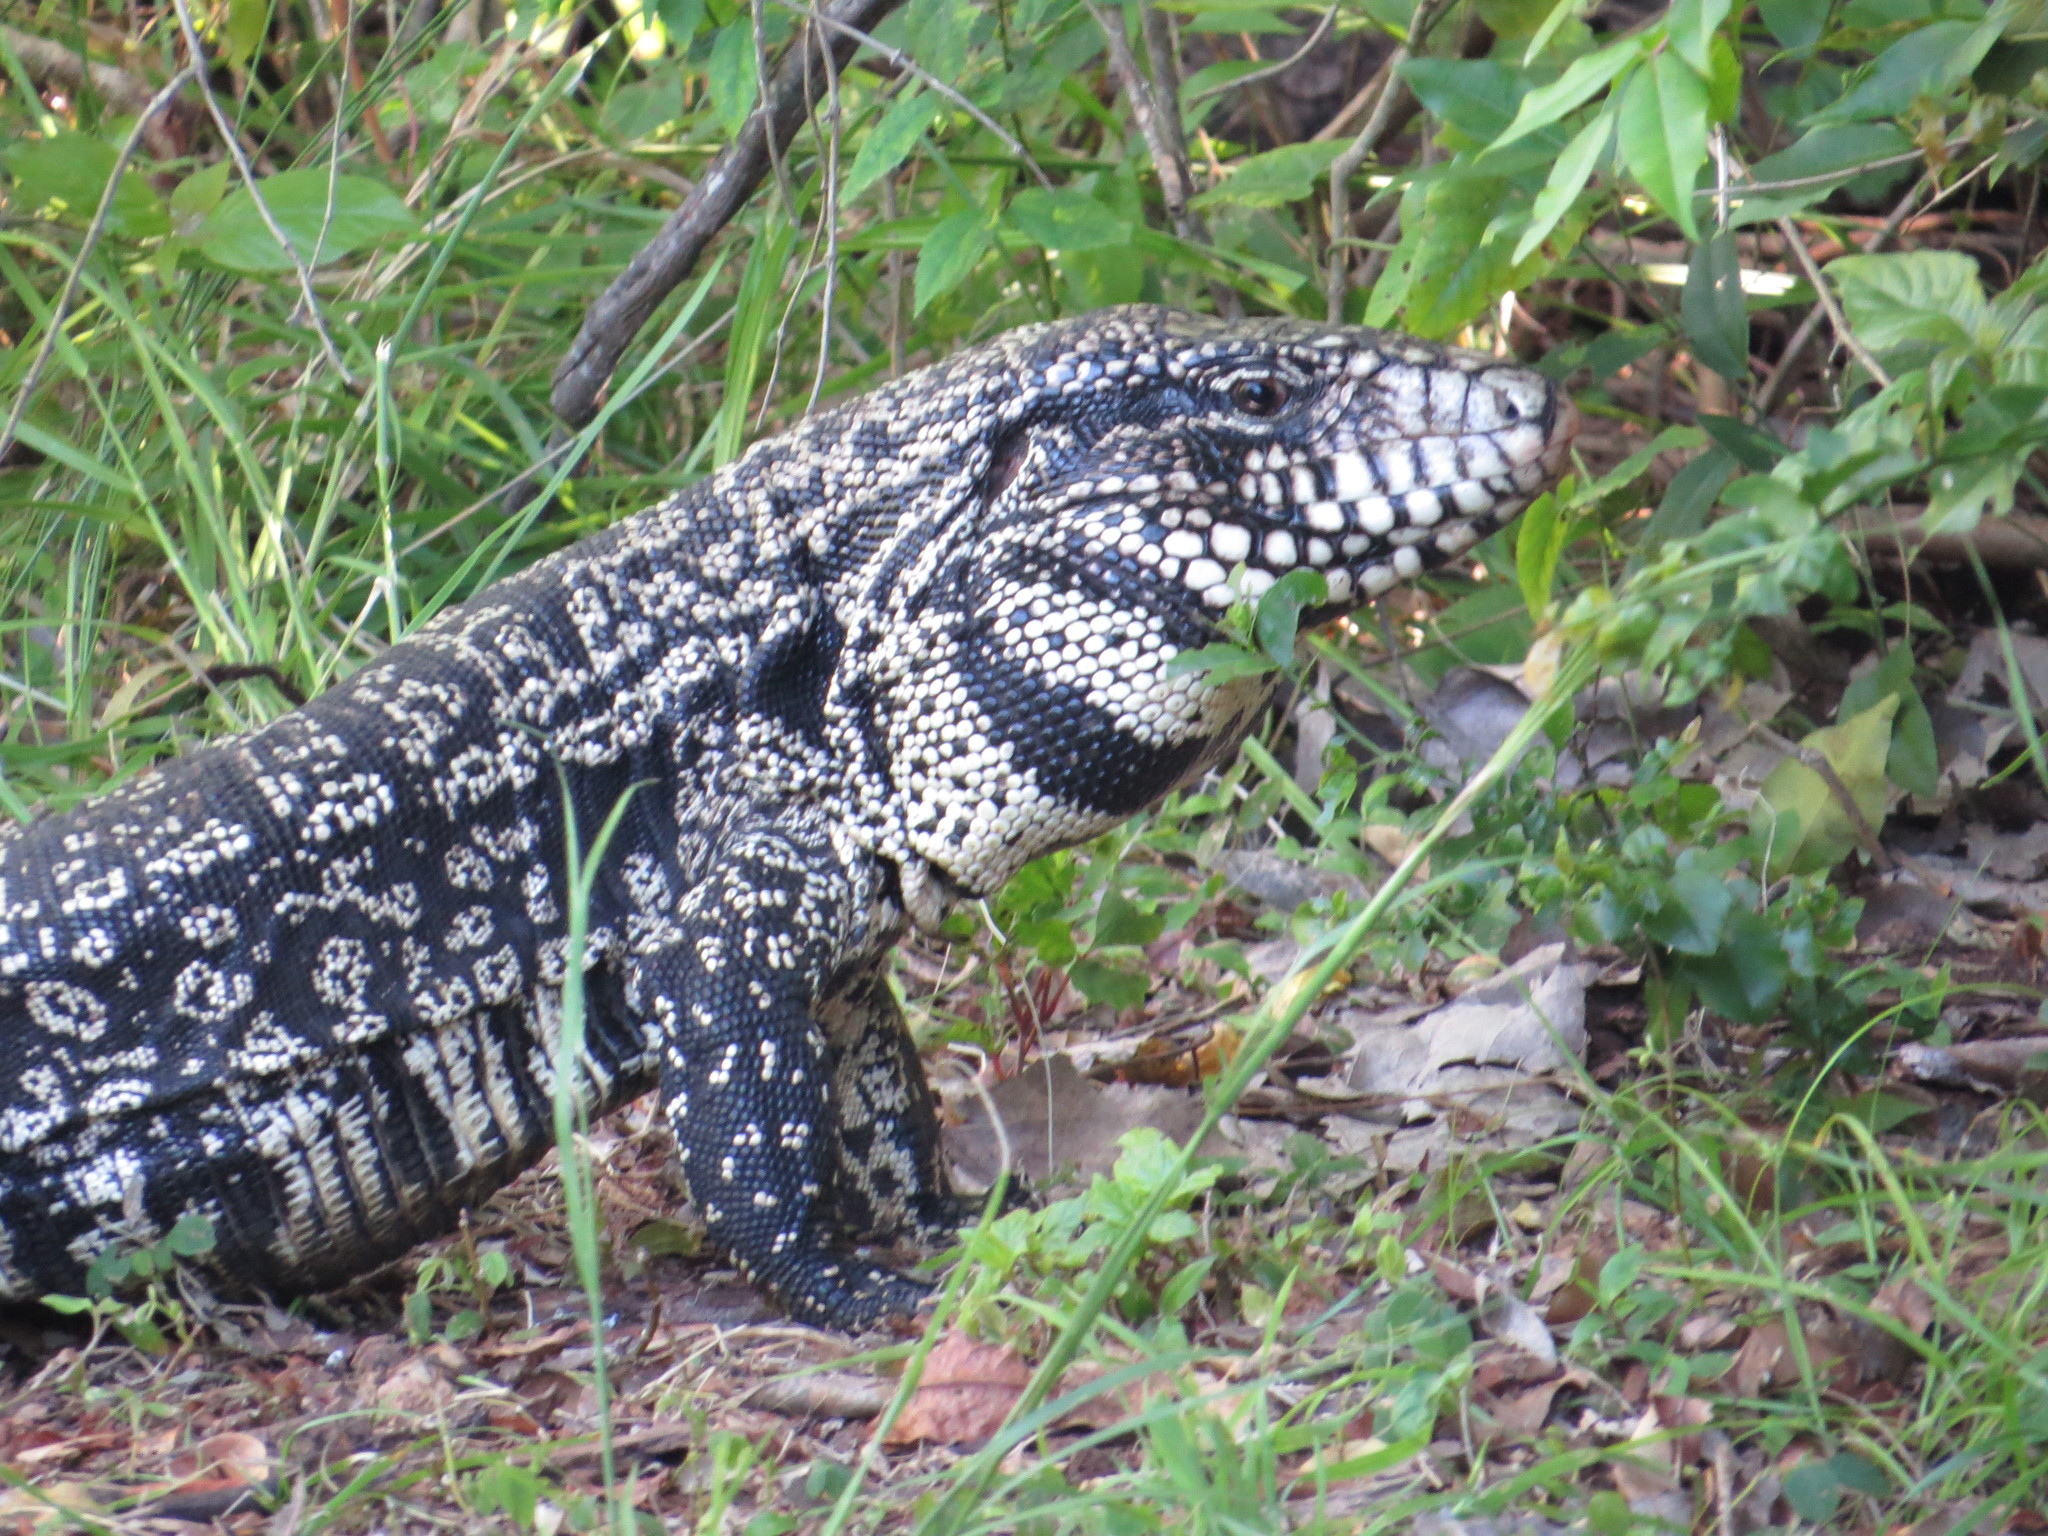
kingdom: Animalia
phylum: Chordata
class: Squamata
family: Teiidae
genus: Salvator
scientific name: Salvator merianae
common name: Argentine black and white tegu
